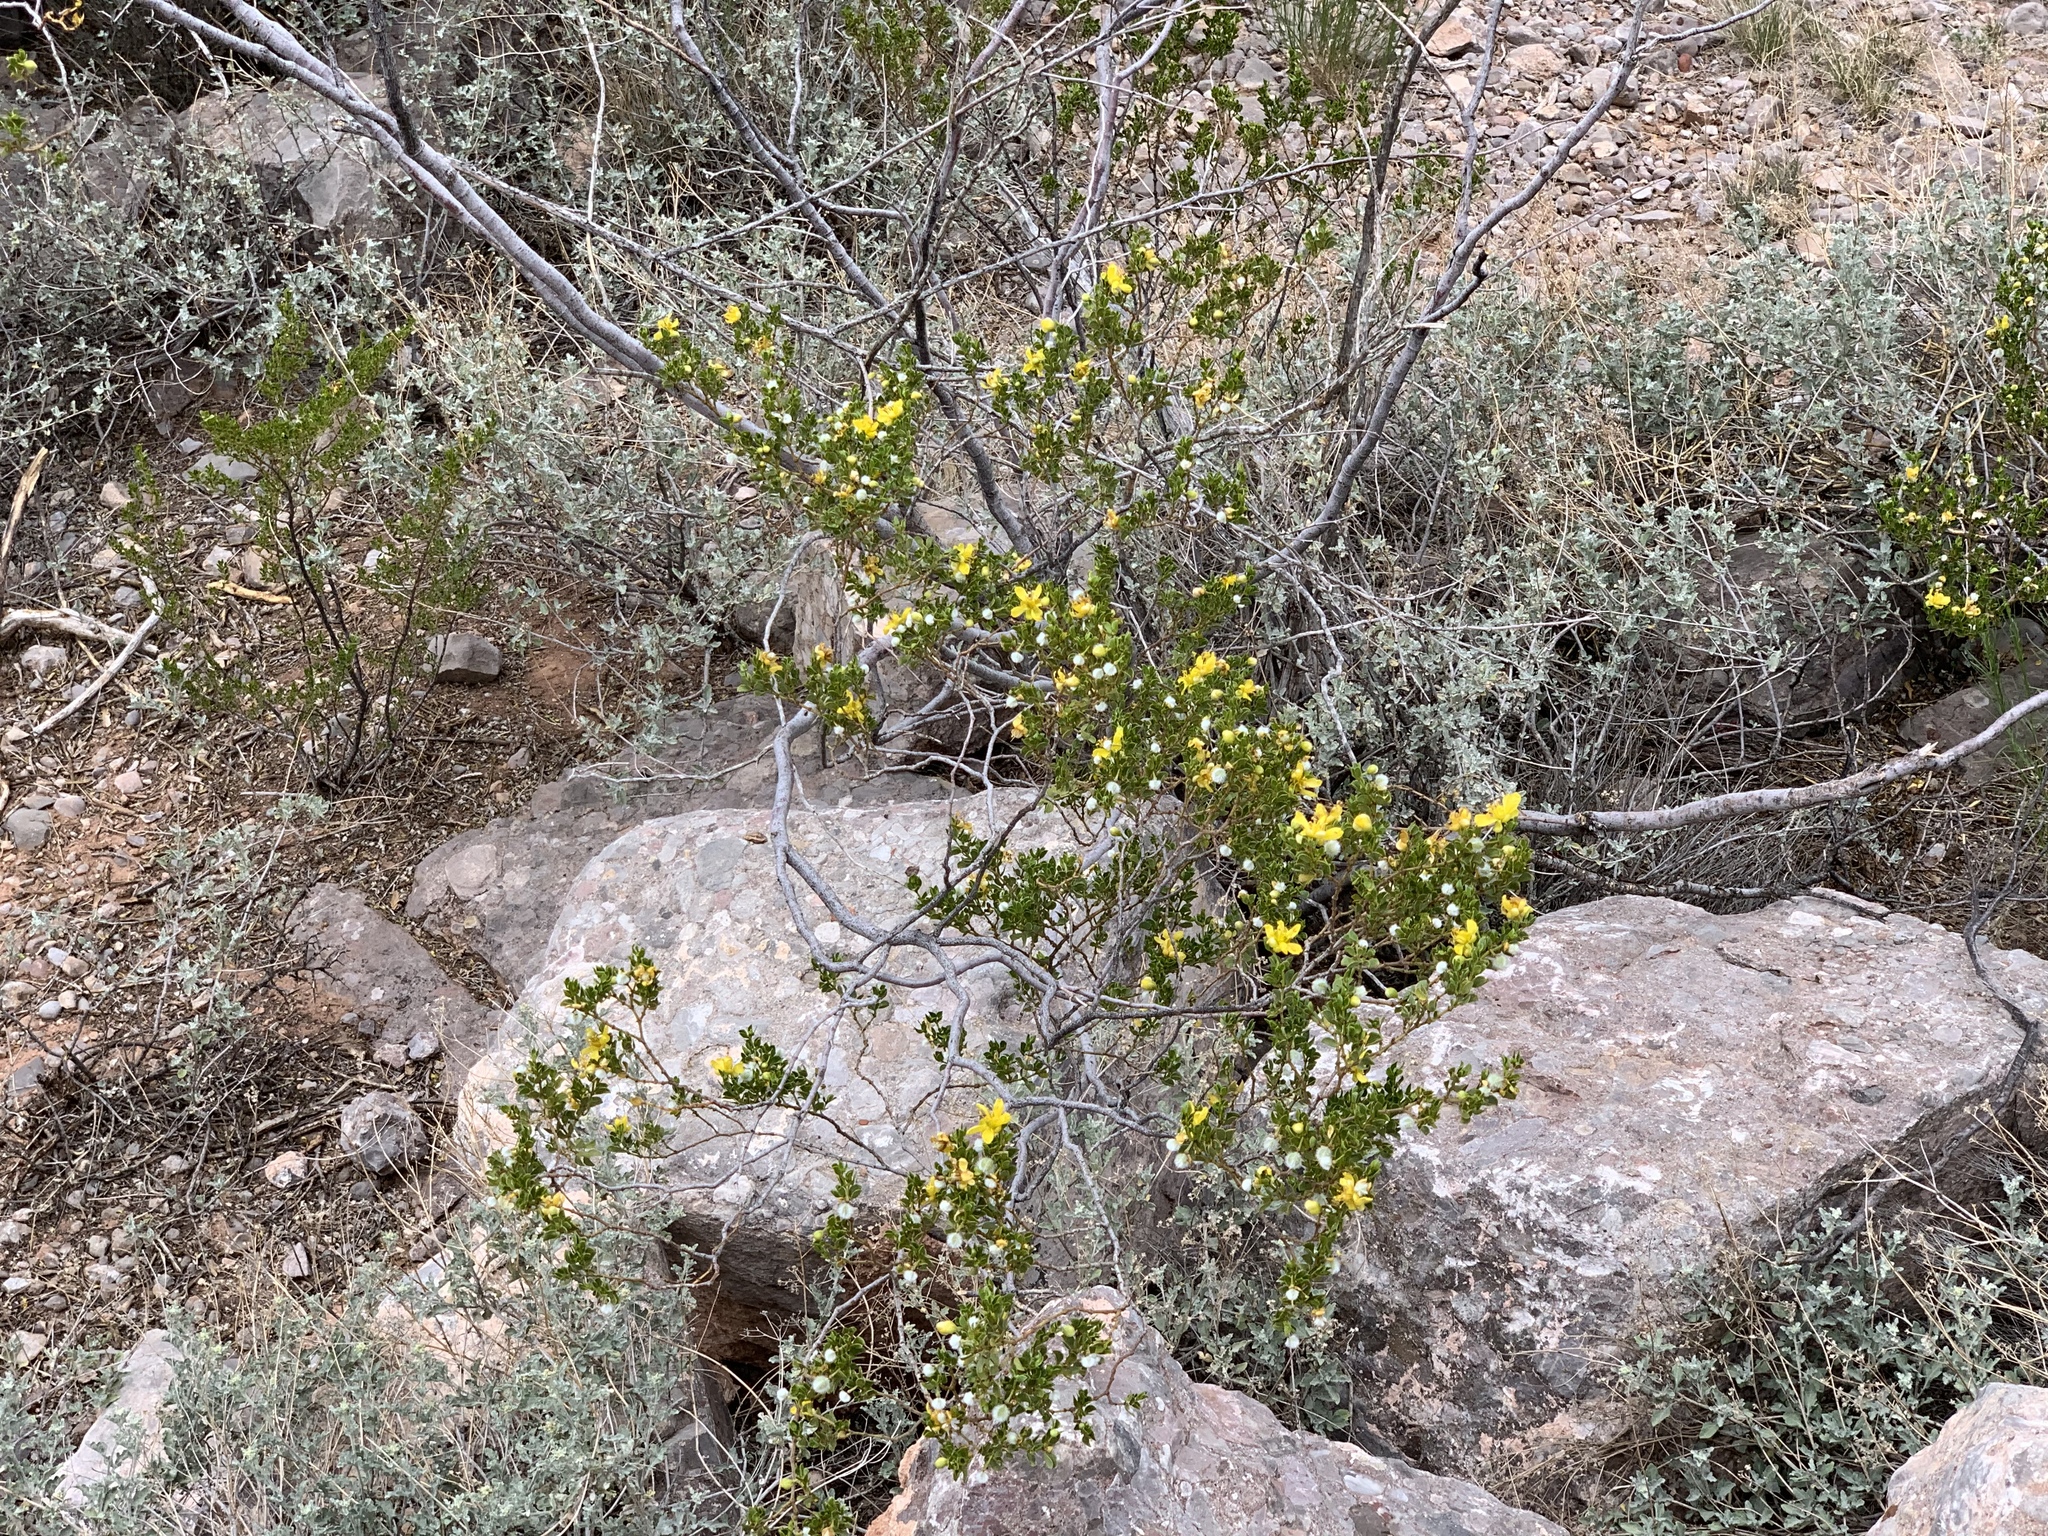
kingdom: Plantae
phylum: Tracheophyta
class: Magnoliopsida
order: Zygophyllales
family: Zygophyllaceae
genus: Larrea
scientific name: Larrea tridentata
